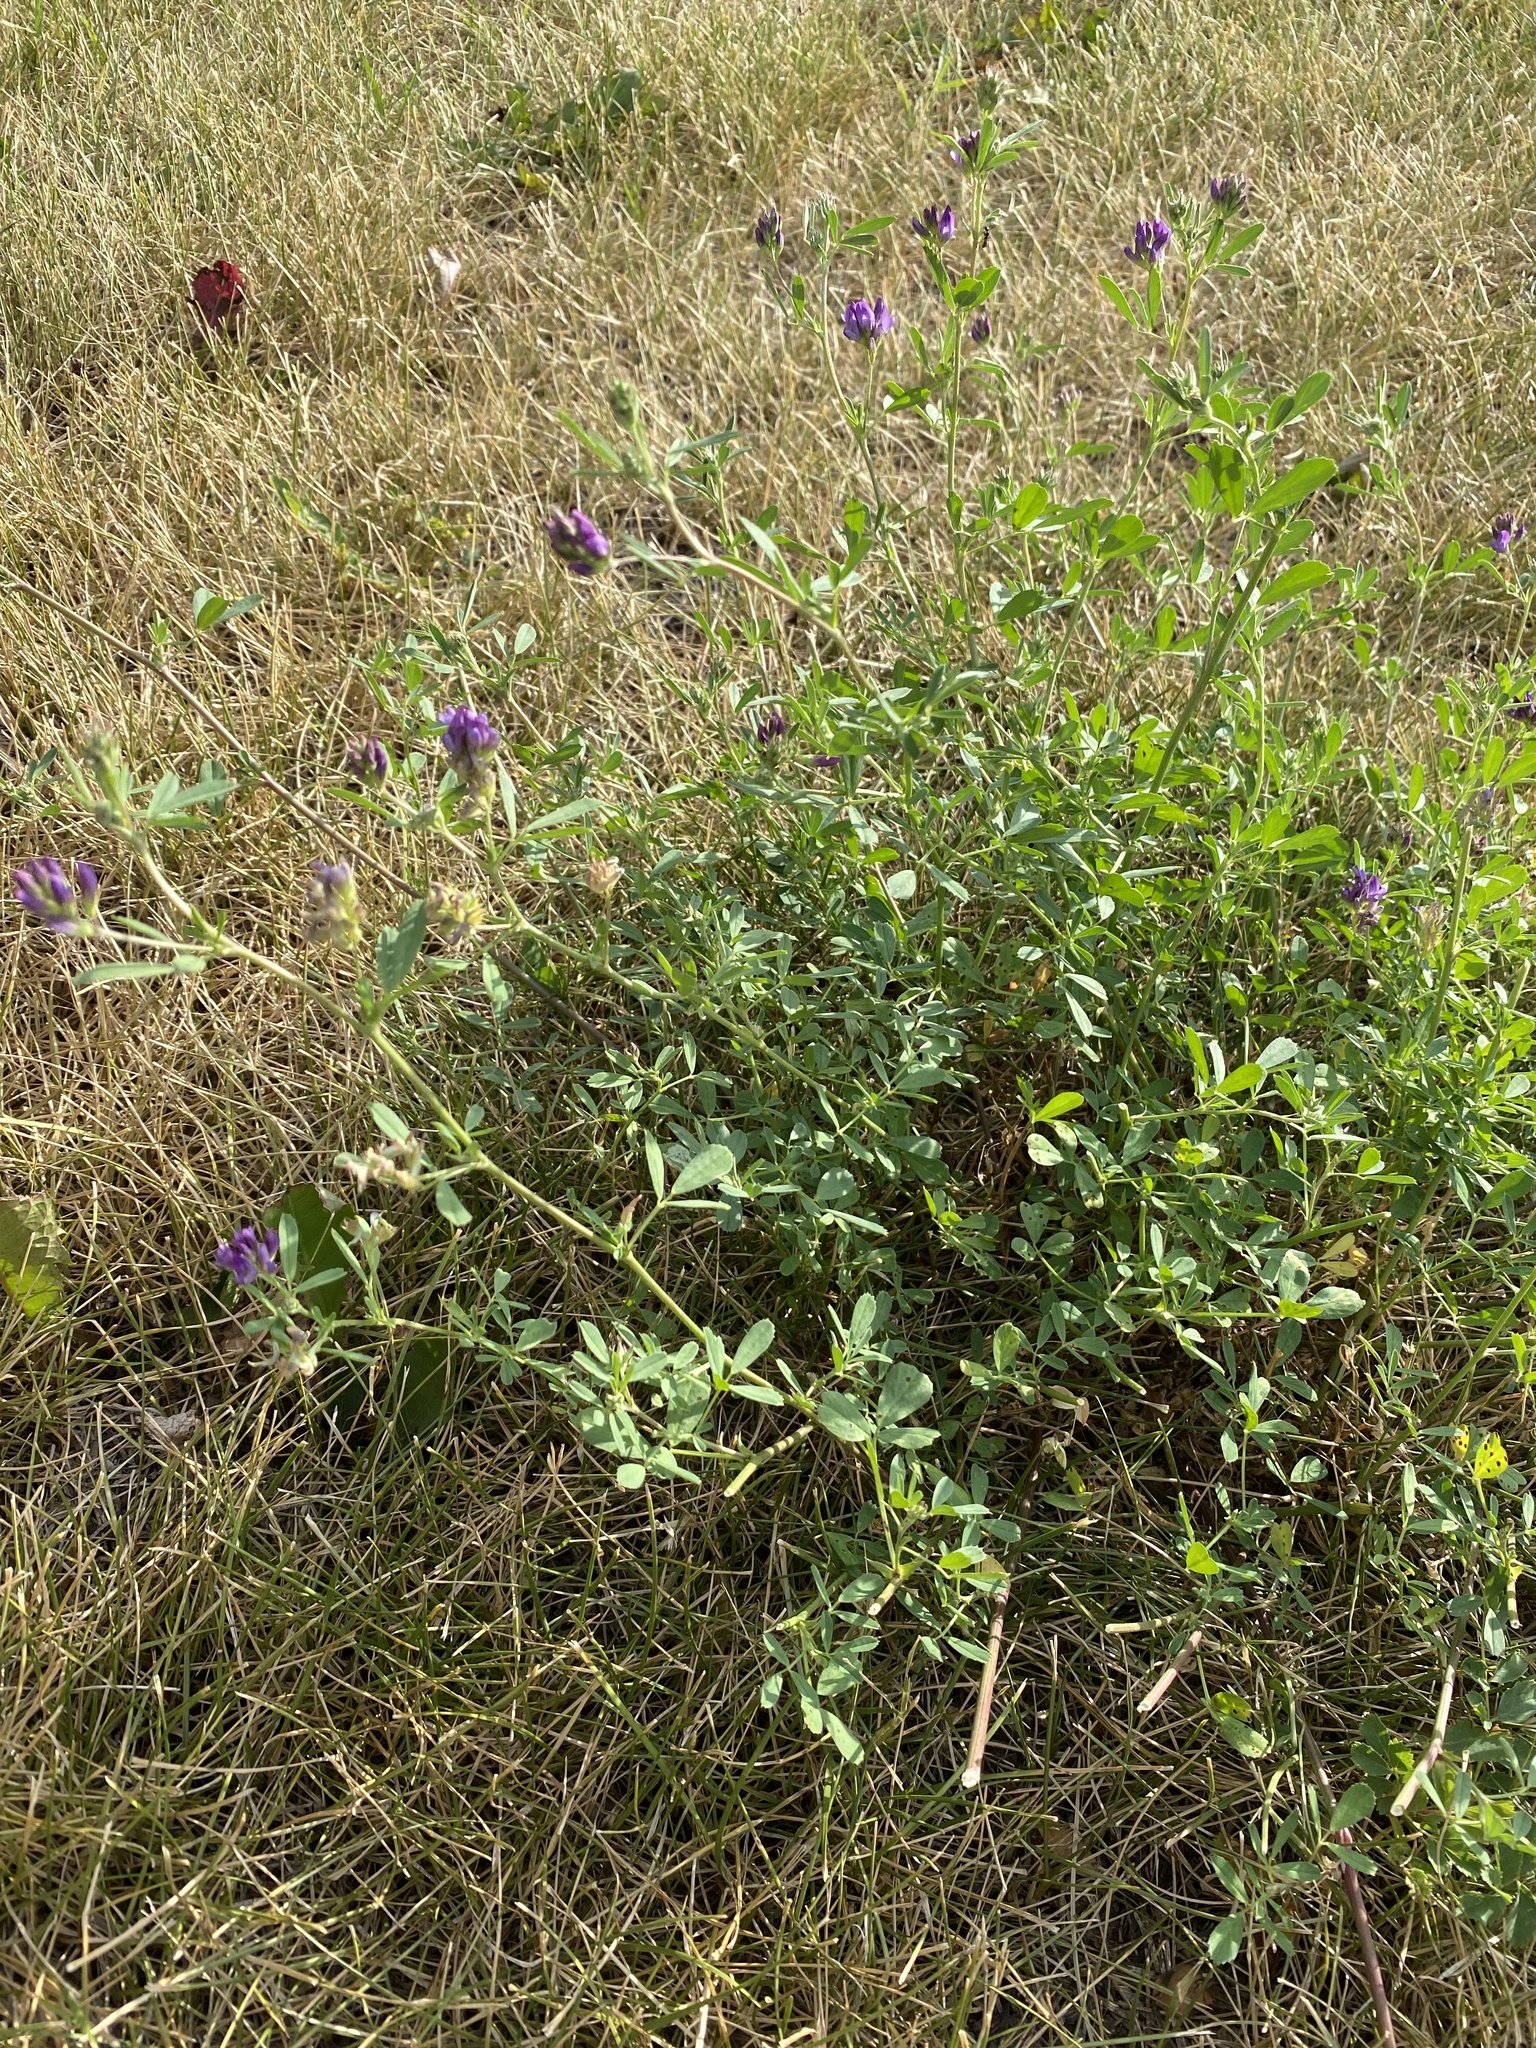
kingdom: Plantae
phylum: Tracheophyta
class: Magnoliopsida
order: Fabales
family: Fabaceae
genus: Medicago
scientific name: Medicago sativa
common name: Alfalfa
